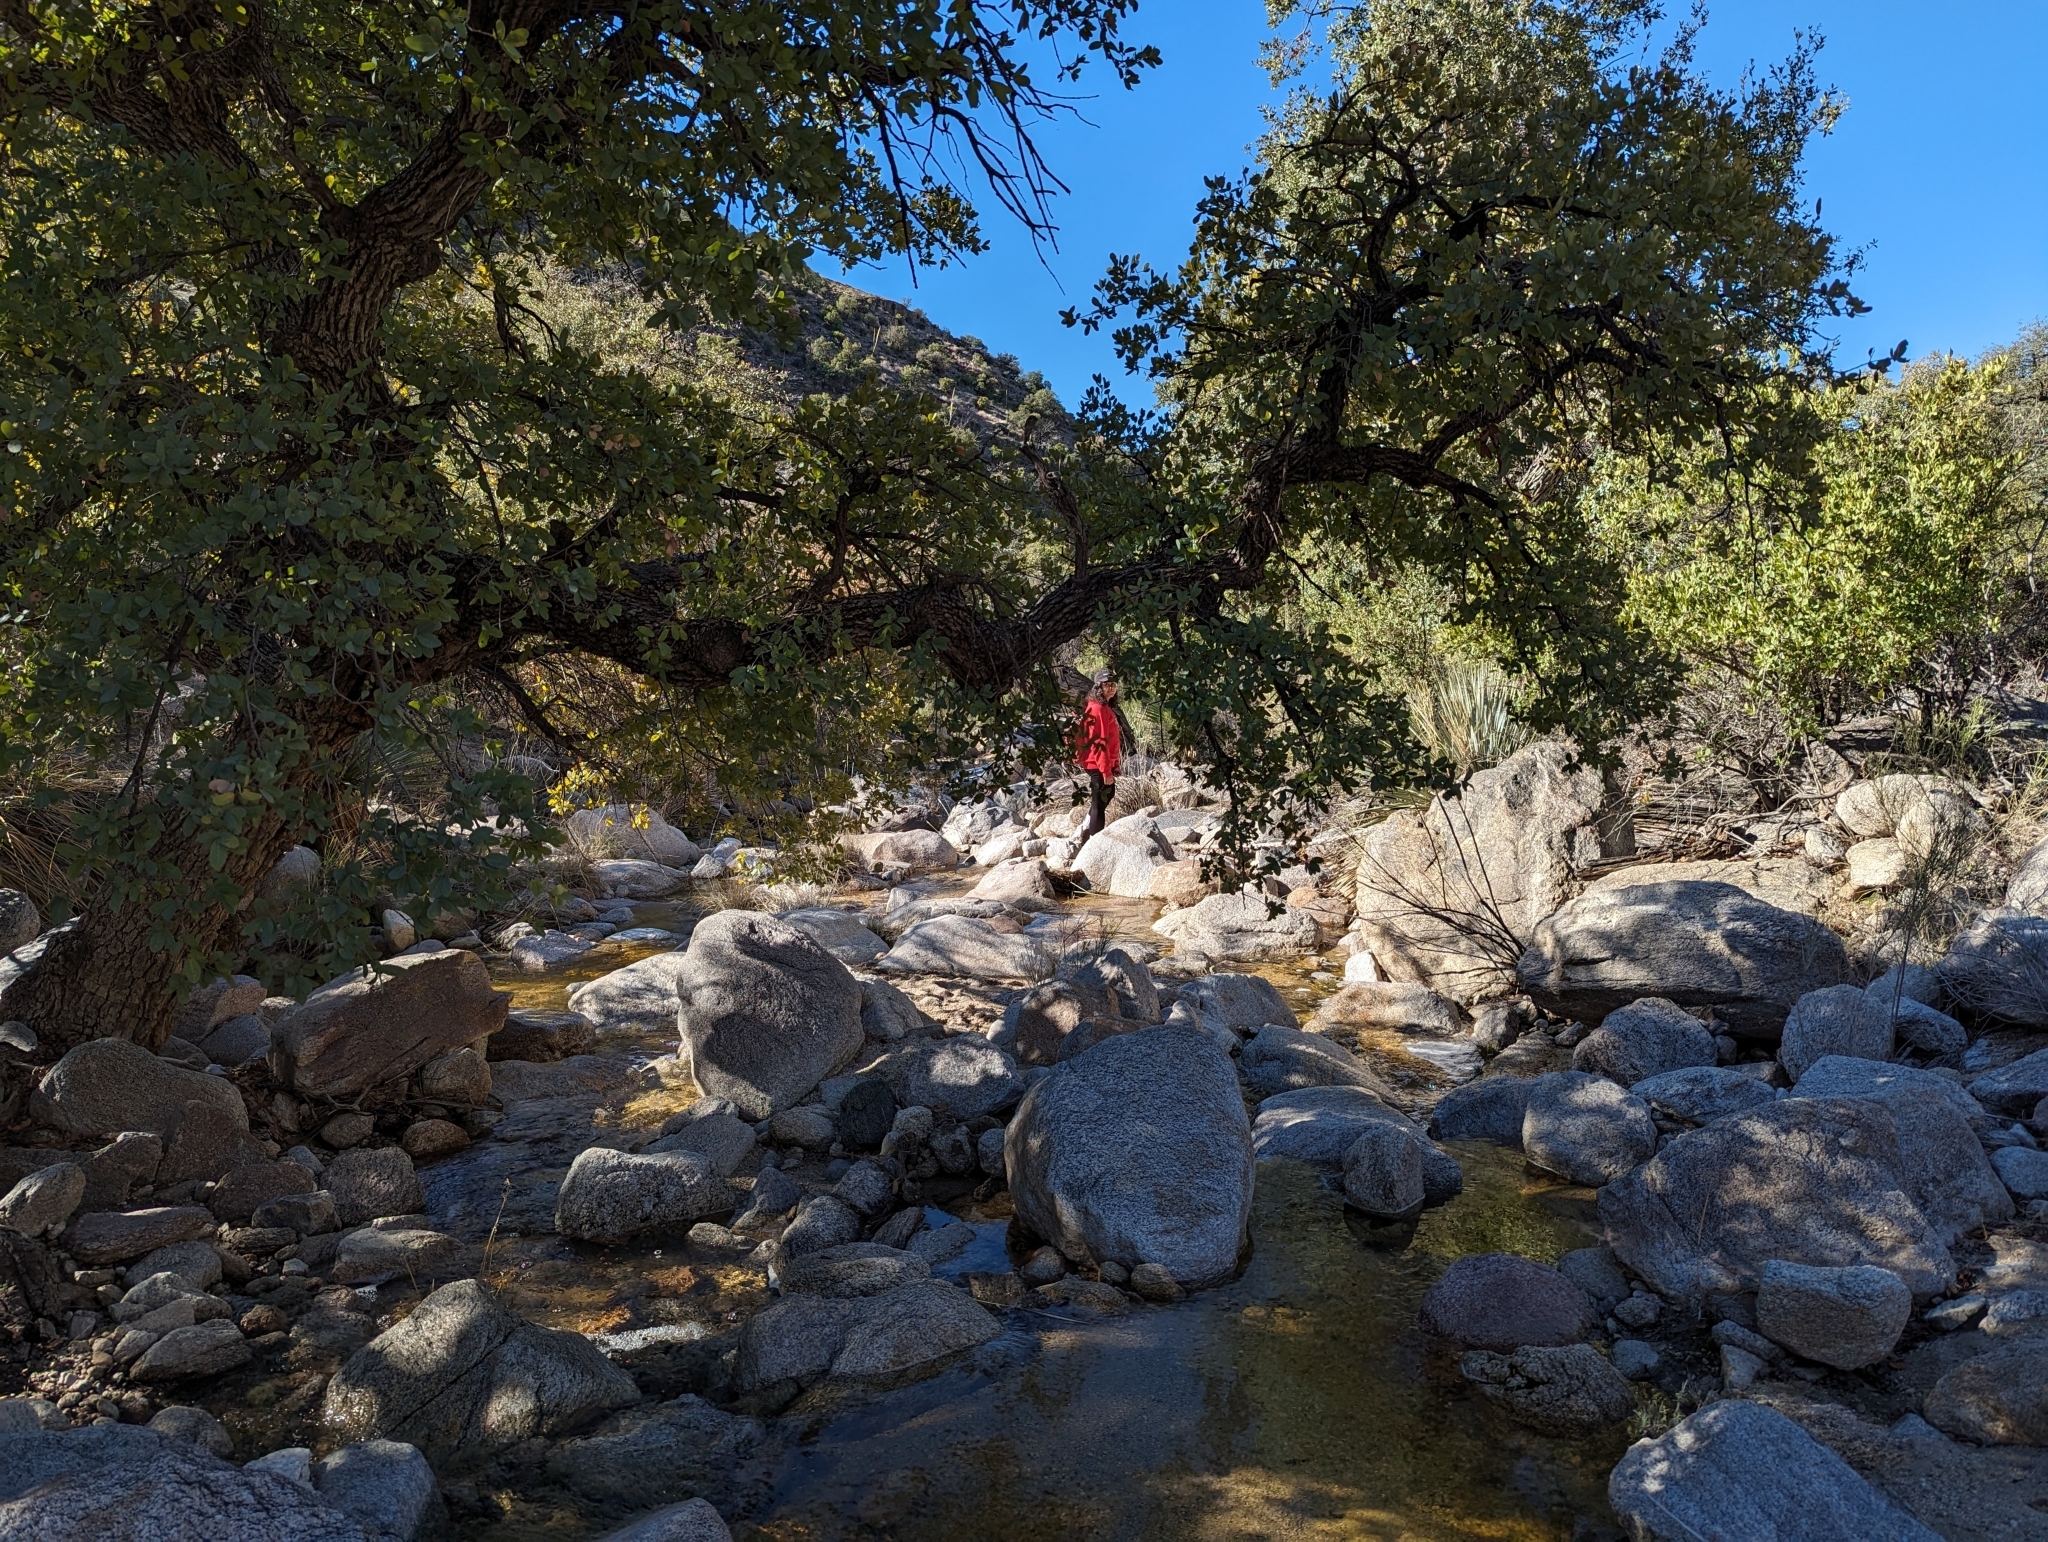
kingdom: Plantae
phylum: Tracheophyta
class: Magnoliopsida
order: Fagales
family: Fagaceae
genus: Quercus
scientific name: Quercus oblongifolia
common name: Mexican blue oak
